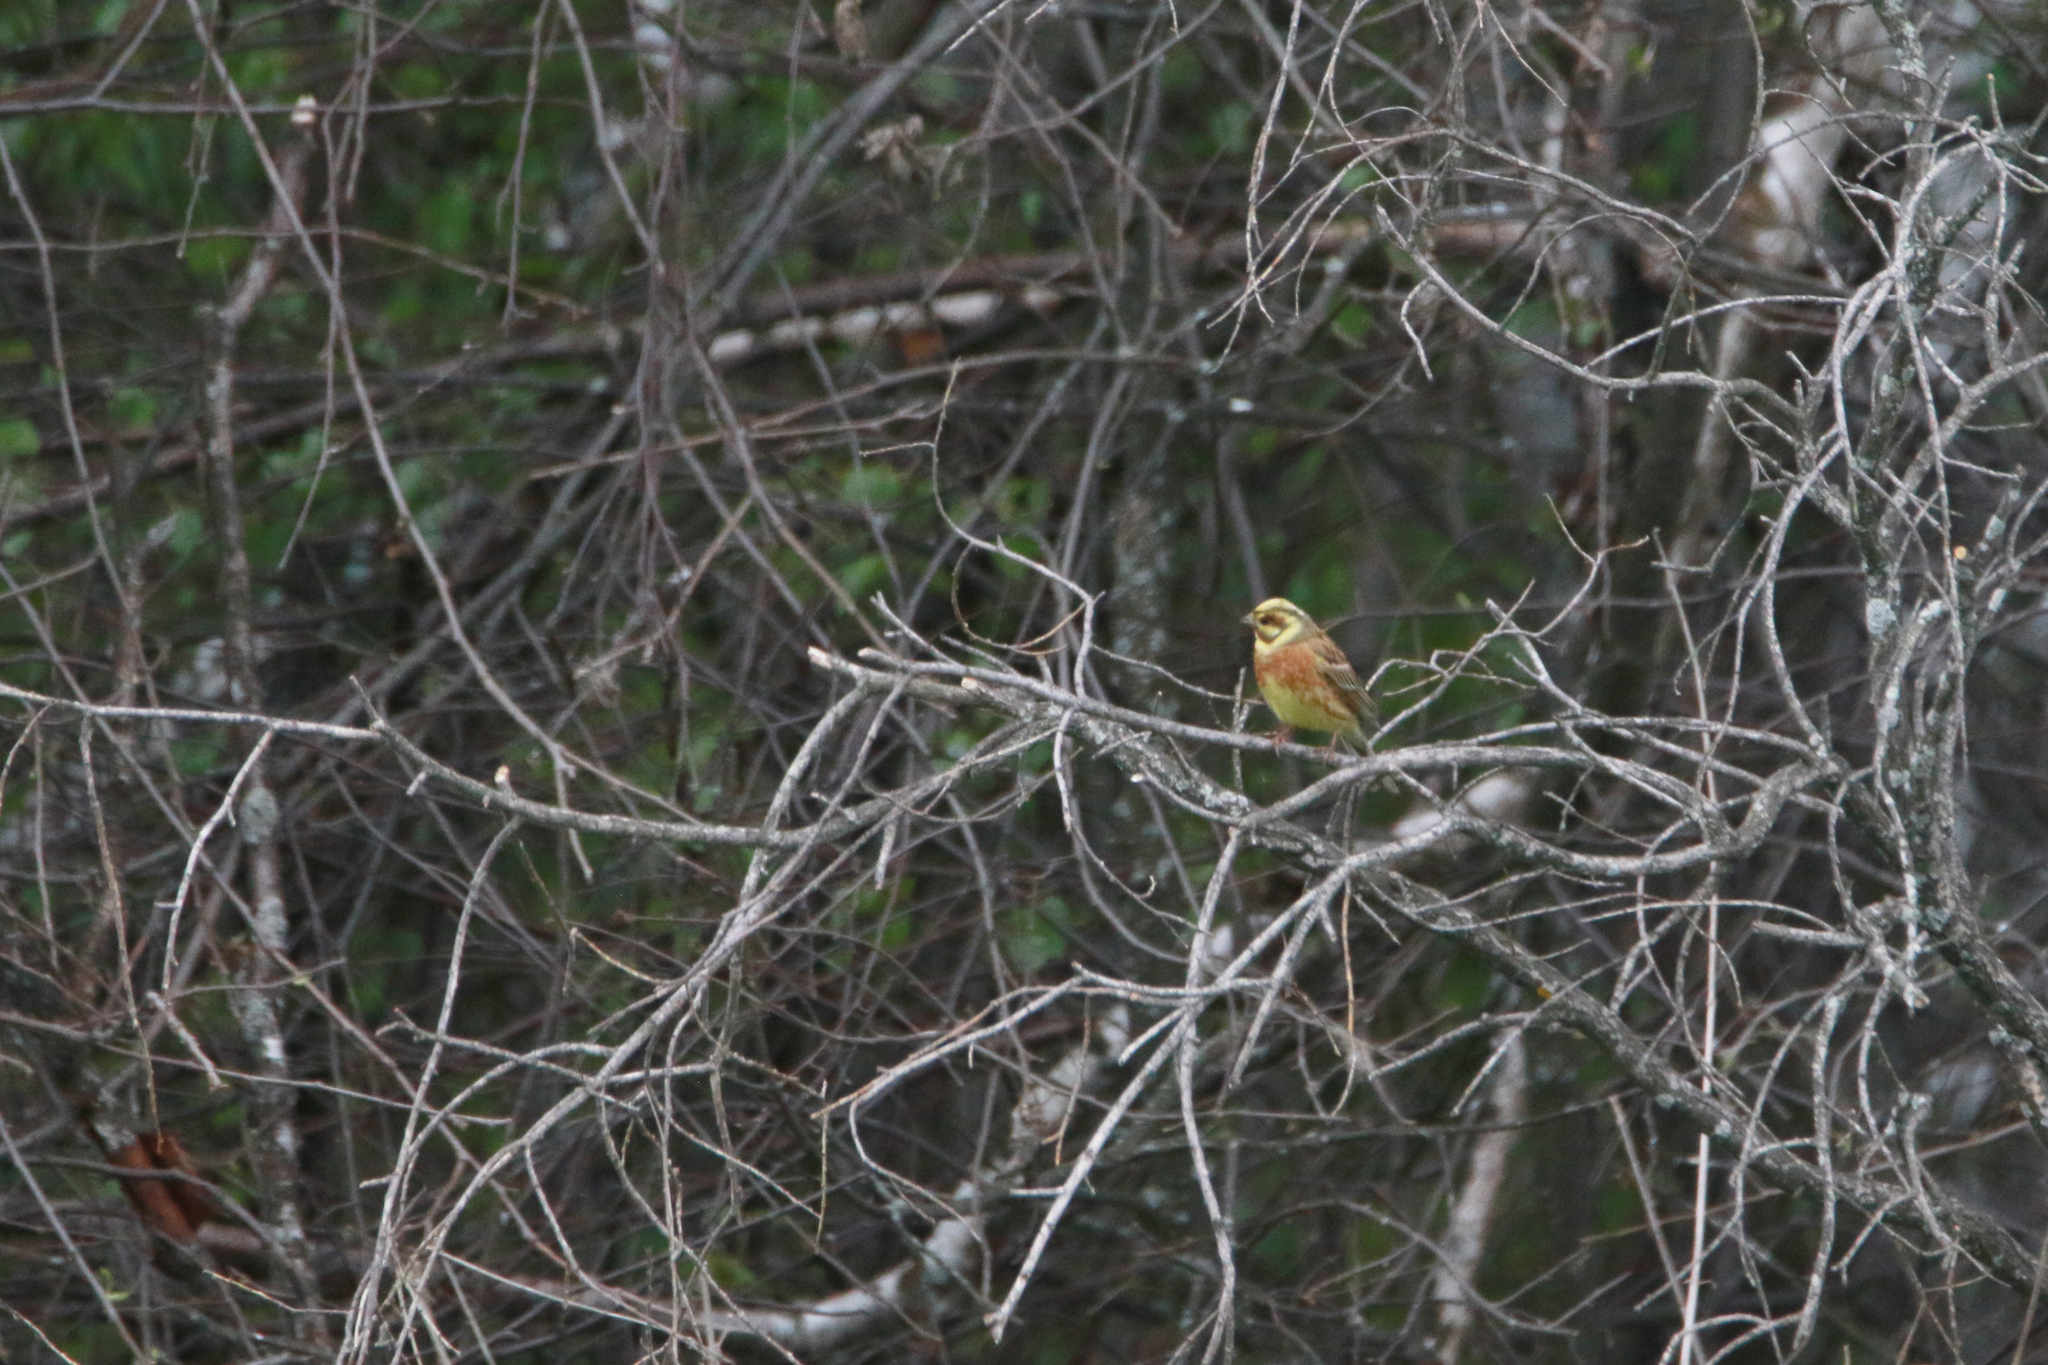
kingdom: Animalia
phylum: Chordata
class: Aves
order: Passeriformes
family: Emberizidae
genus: Emberiza
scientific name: Emberiza
